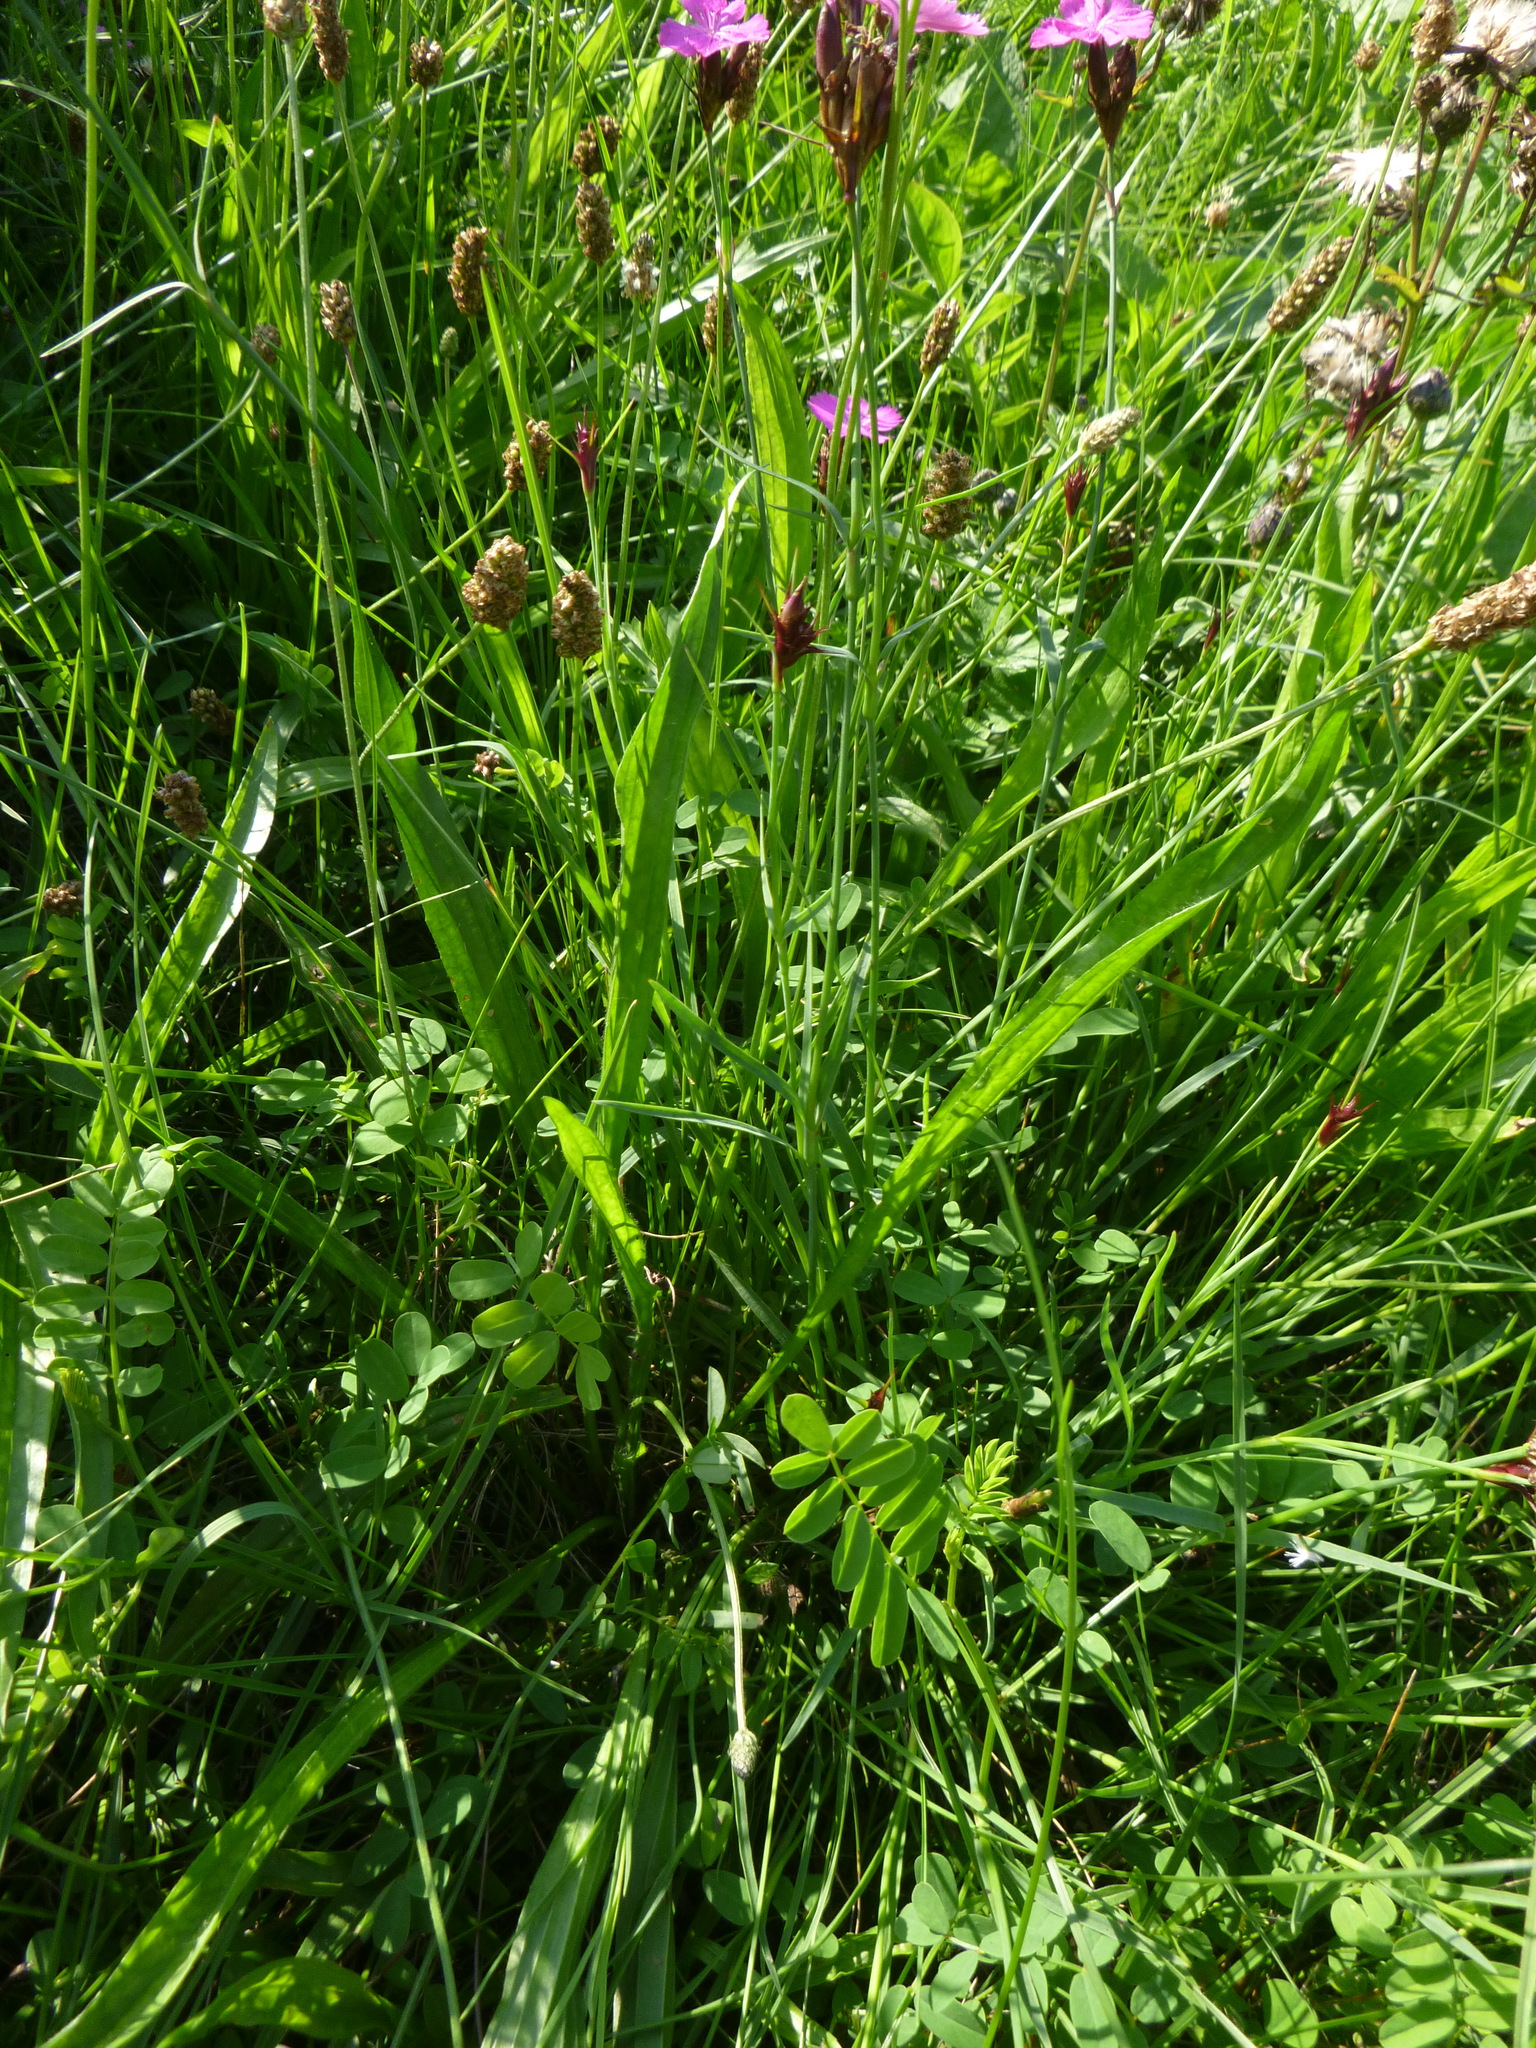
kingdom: Plantae
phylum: Tracheophyta
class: Magnoliopsida
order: Caryophyllales
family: Caryophyllaceae
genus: Dianthus
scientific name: Dianthus carthusianorum
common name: Carthusian pink
